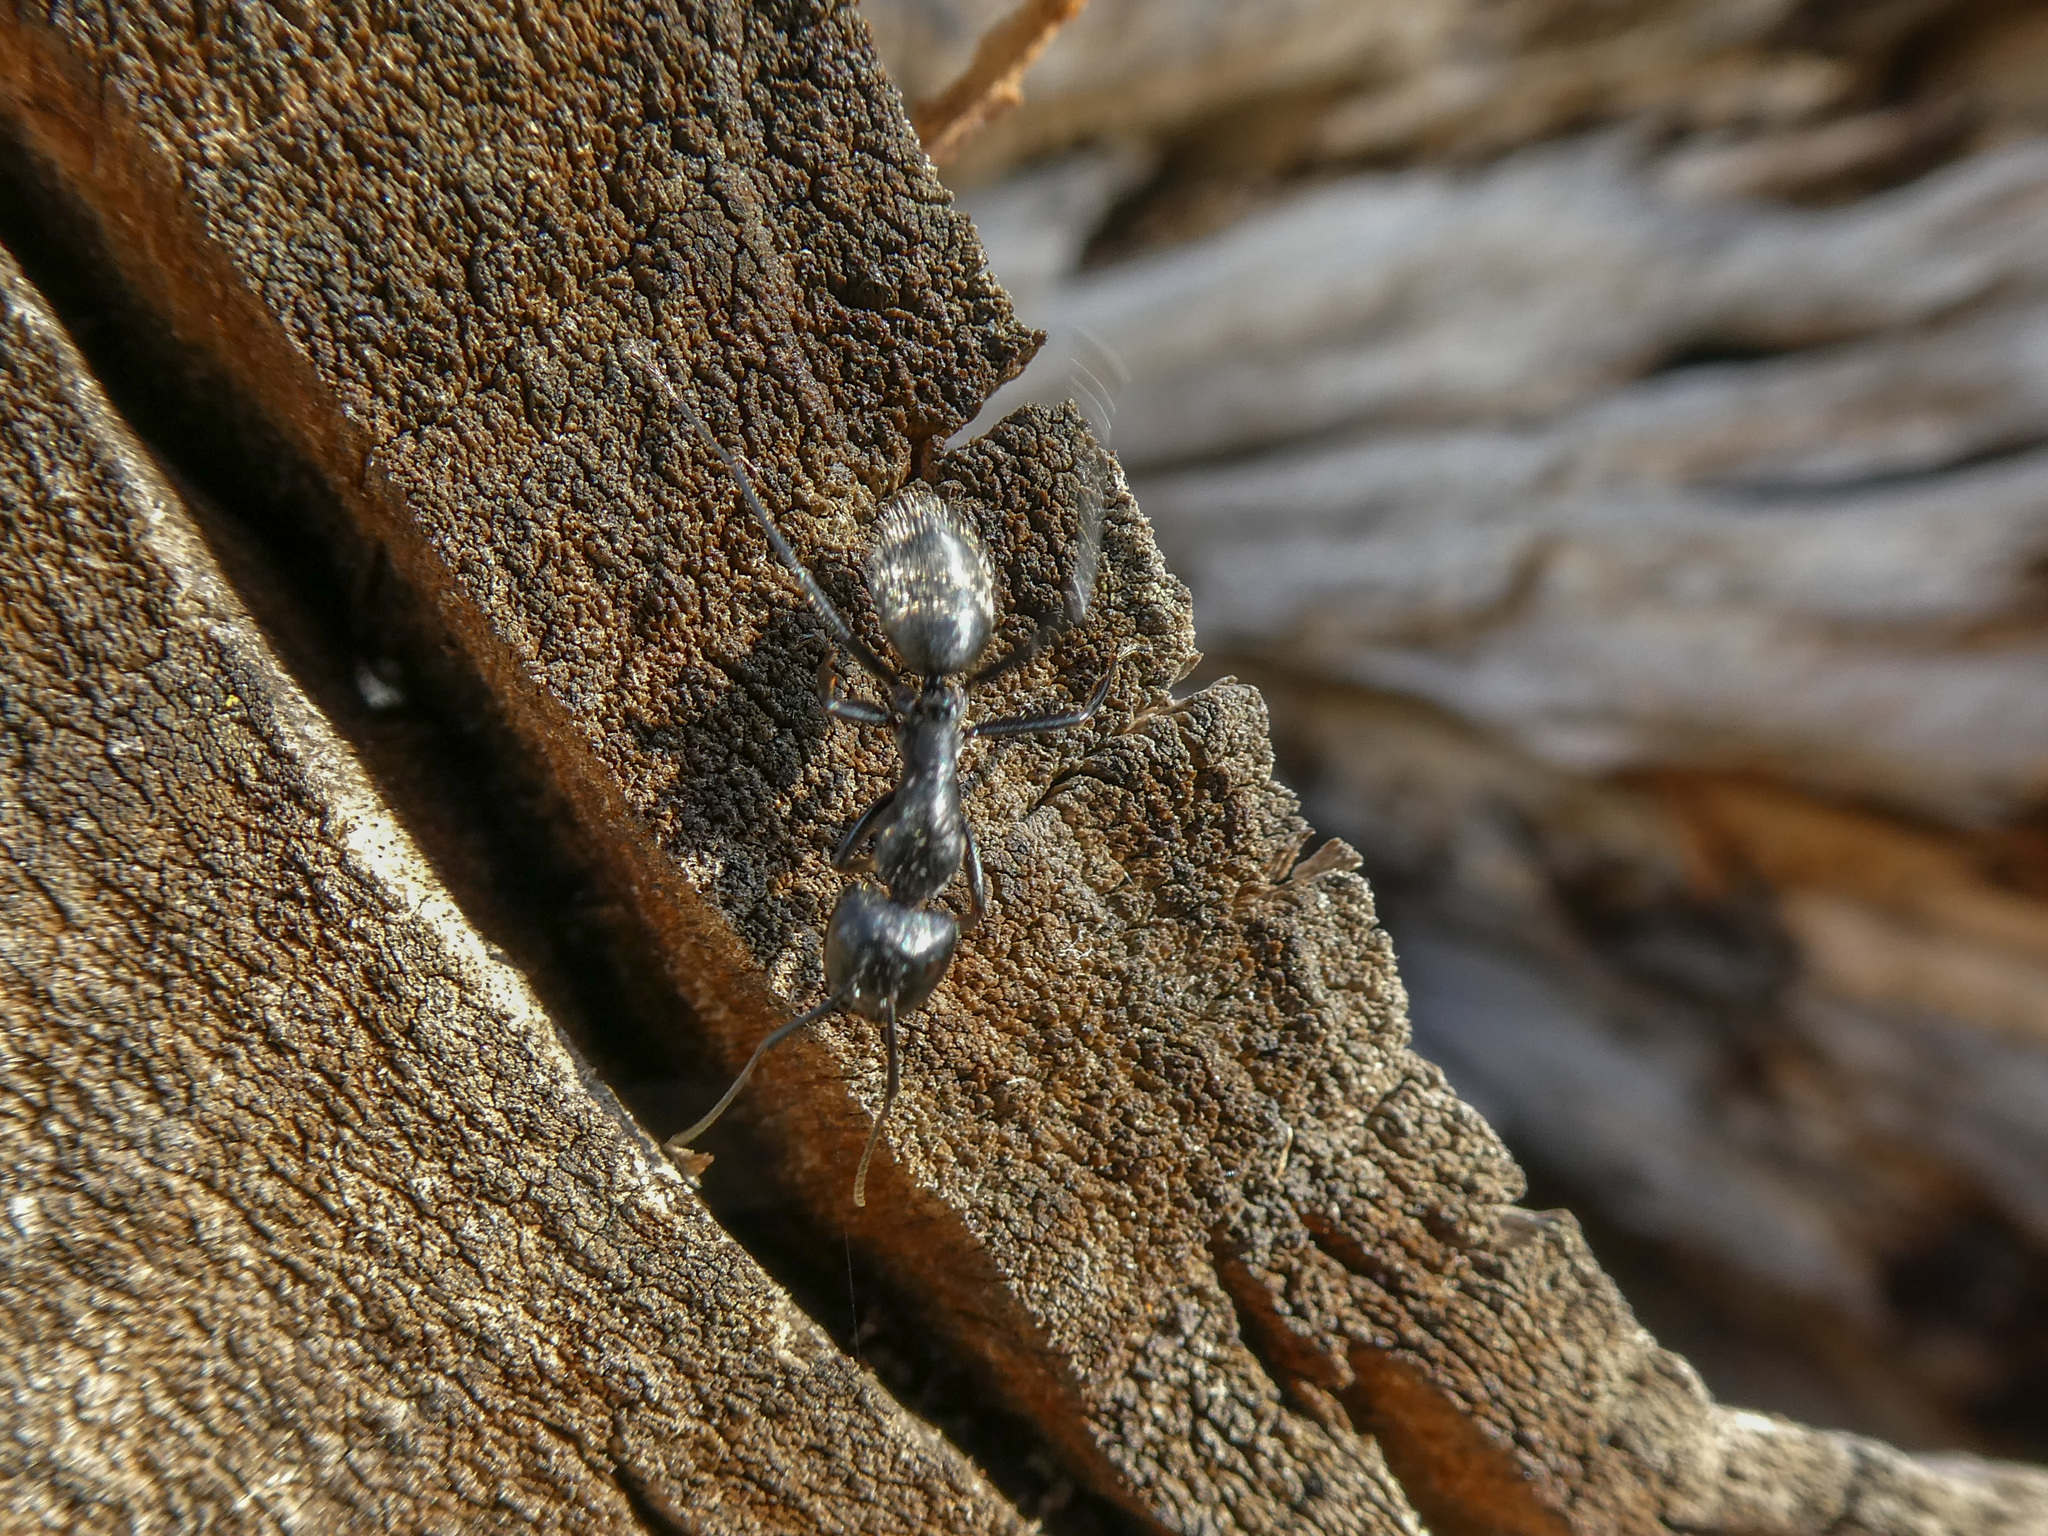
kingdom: Animalia
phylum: Arthropoda
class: Insecta
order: Hymenoptera
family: Formicidae
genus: Camponotus
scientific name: Camponotus vagus
